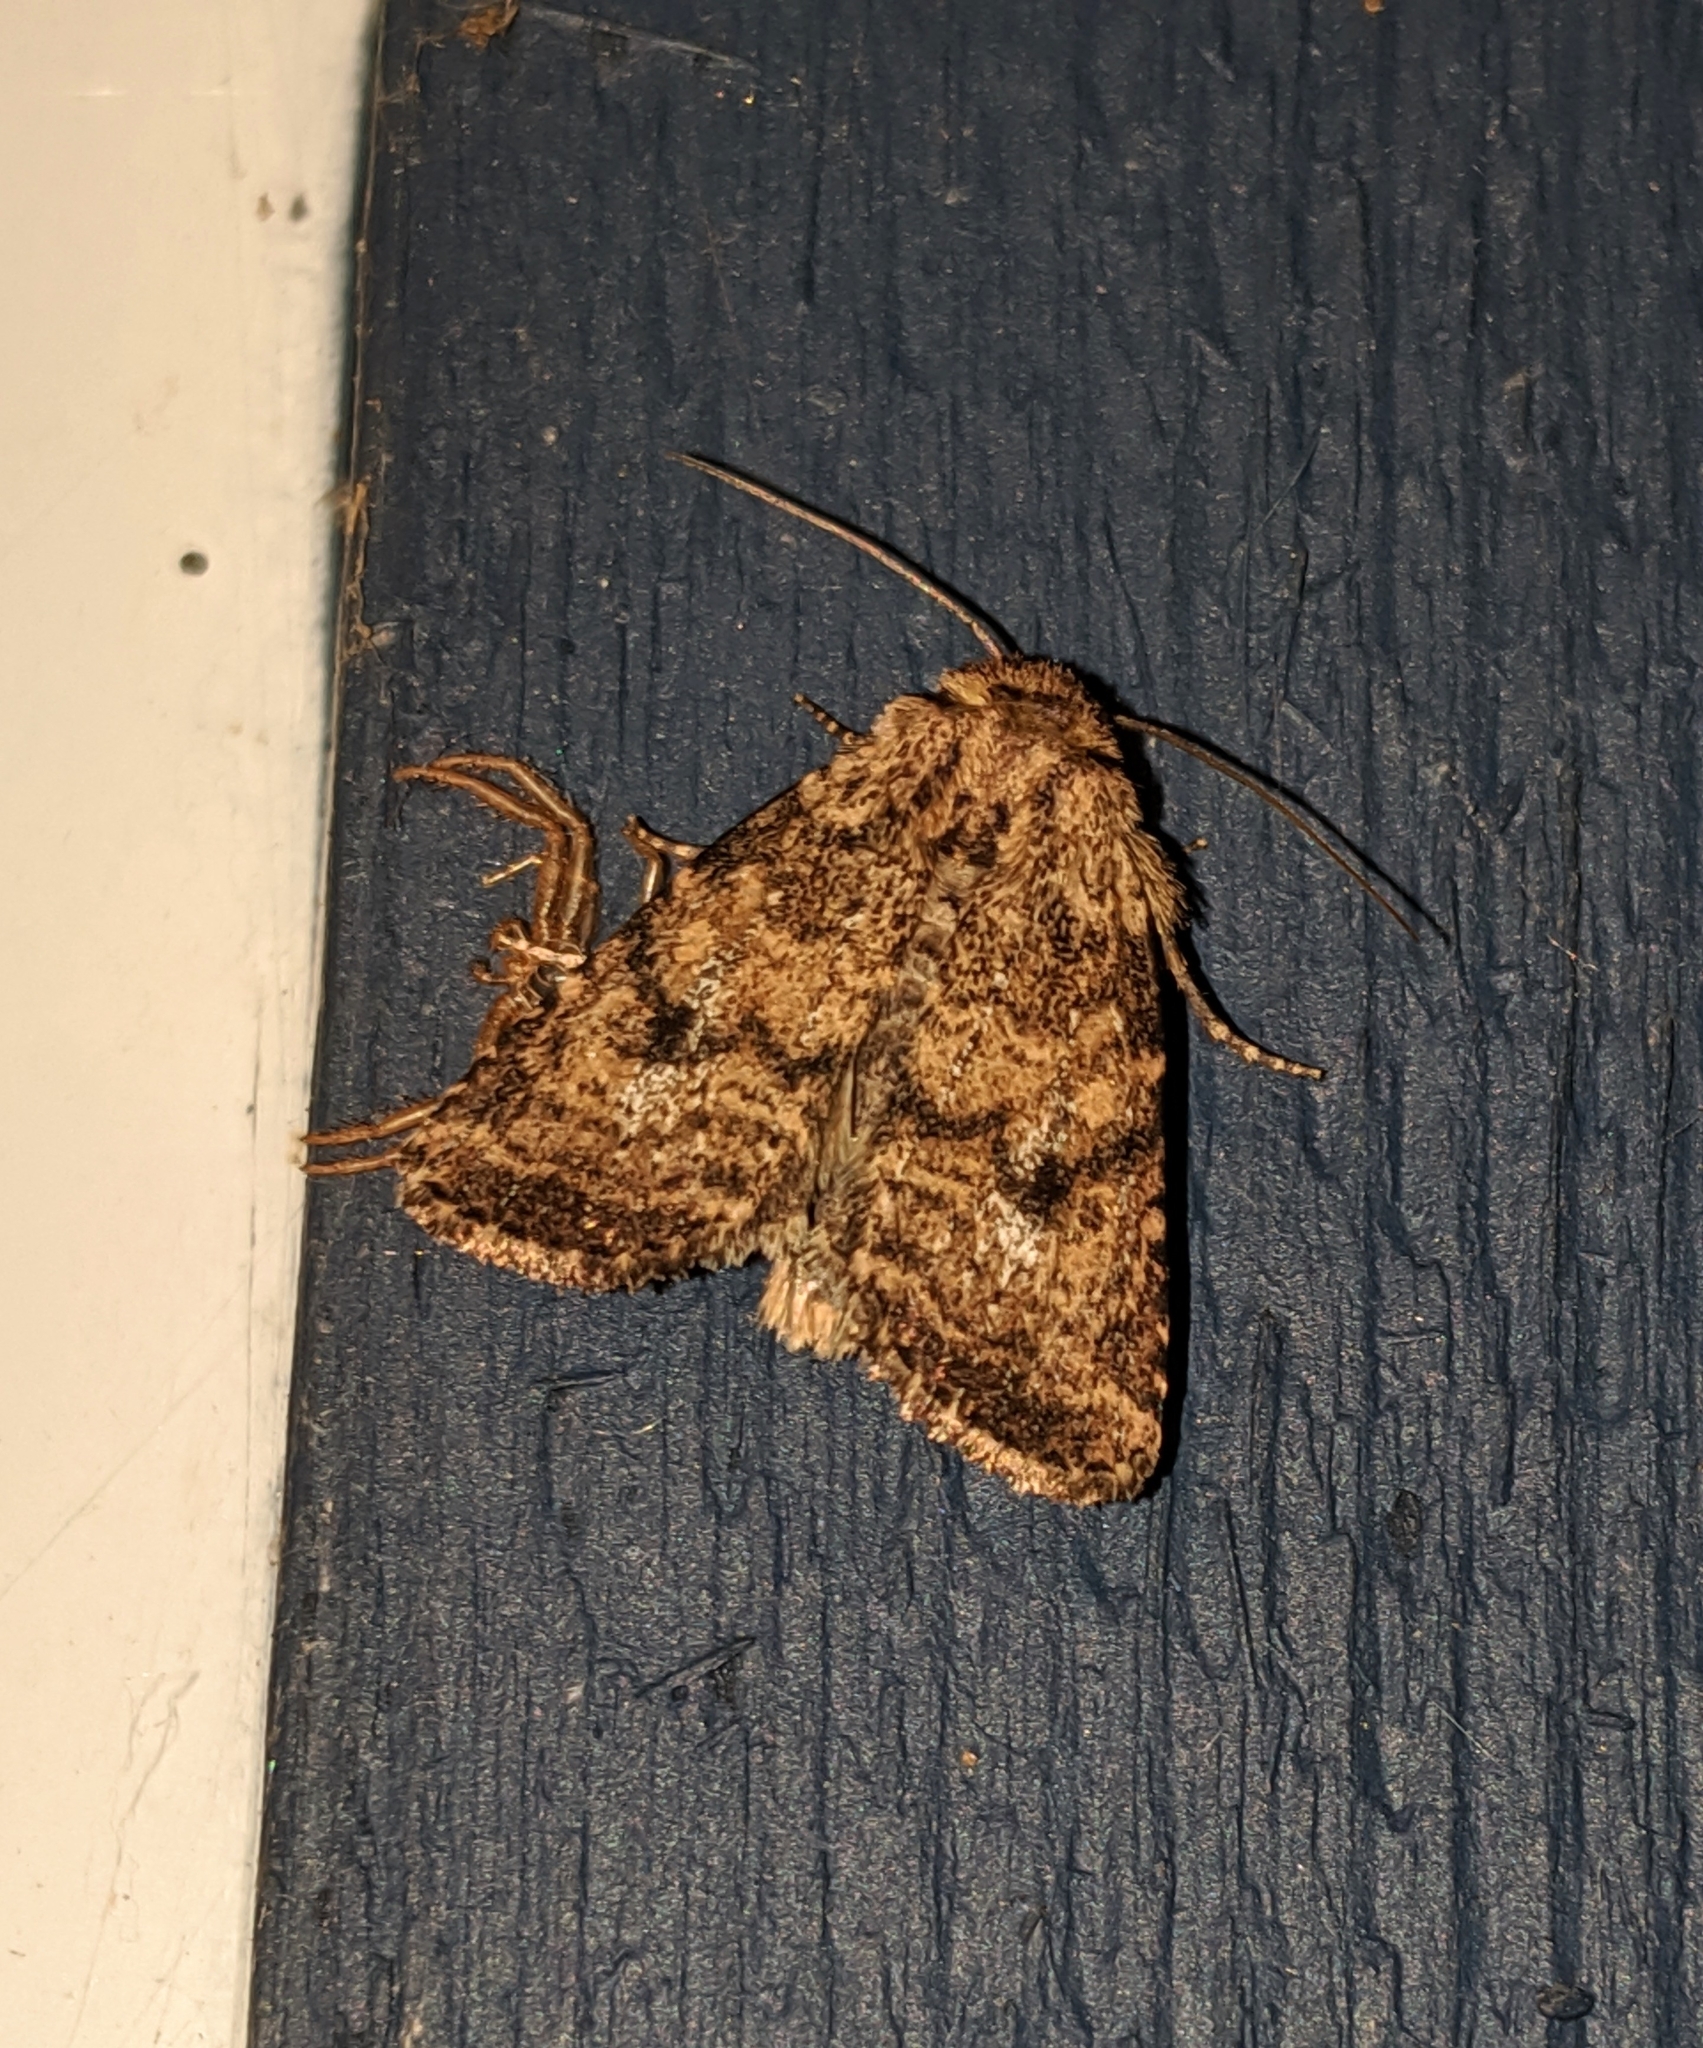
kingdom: Animalia
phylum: Arthropoda
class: Insecta
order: Lepidoptera
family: Noctuidae
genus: Homorthodes
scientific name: Homorthodes hanhami
